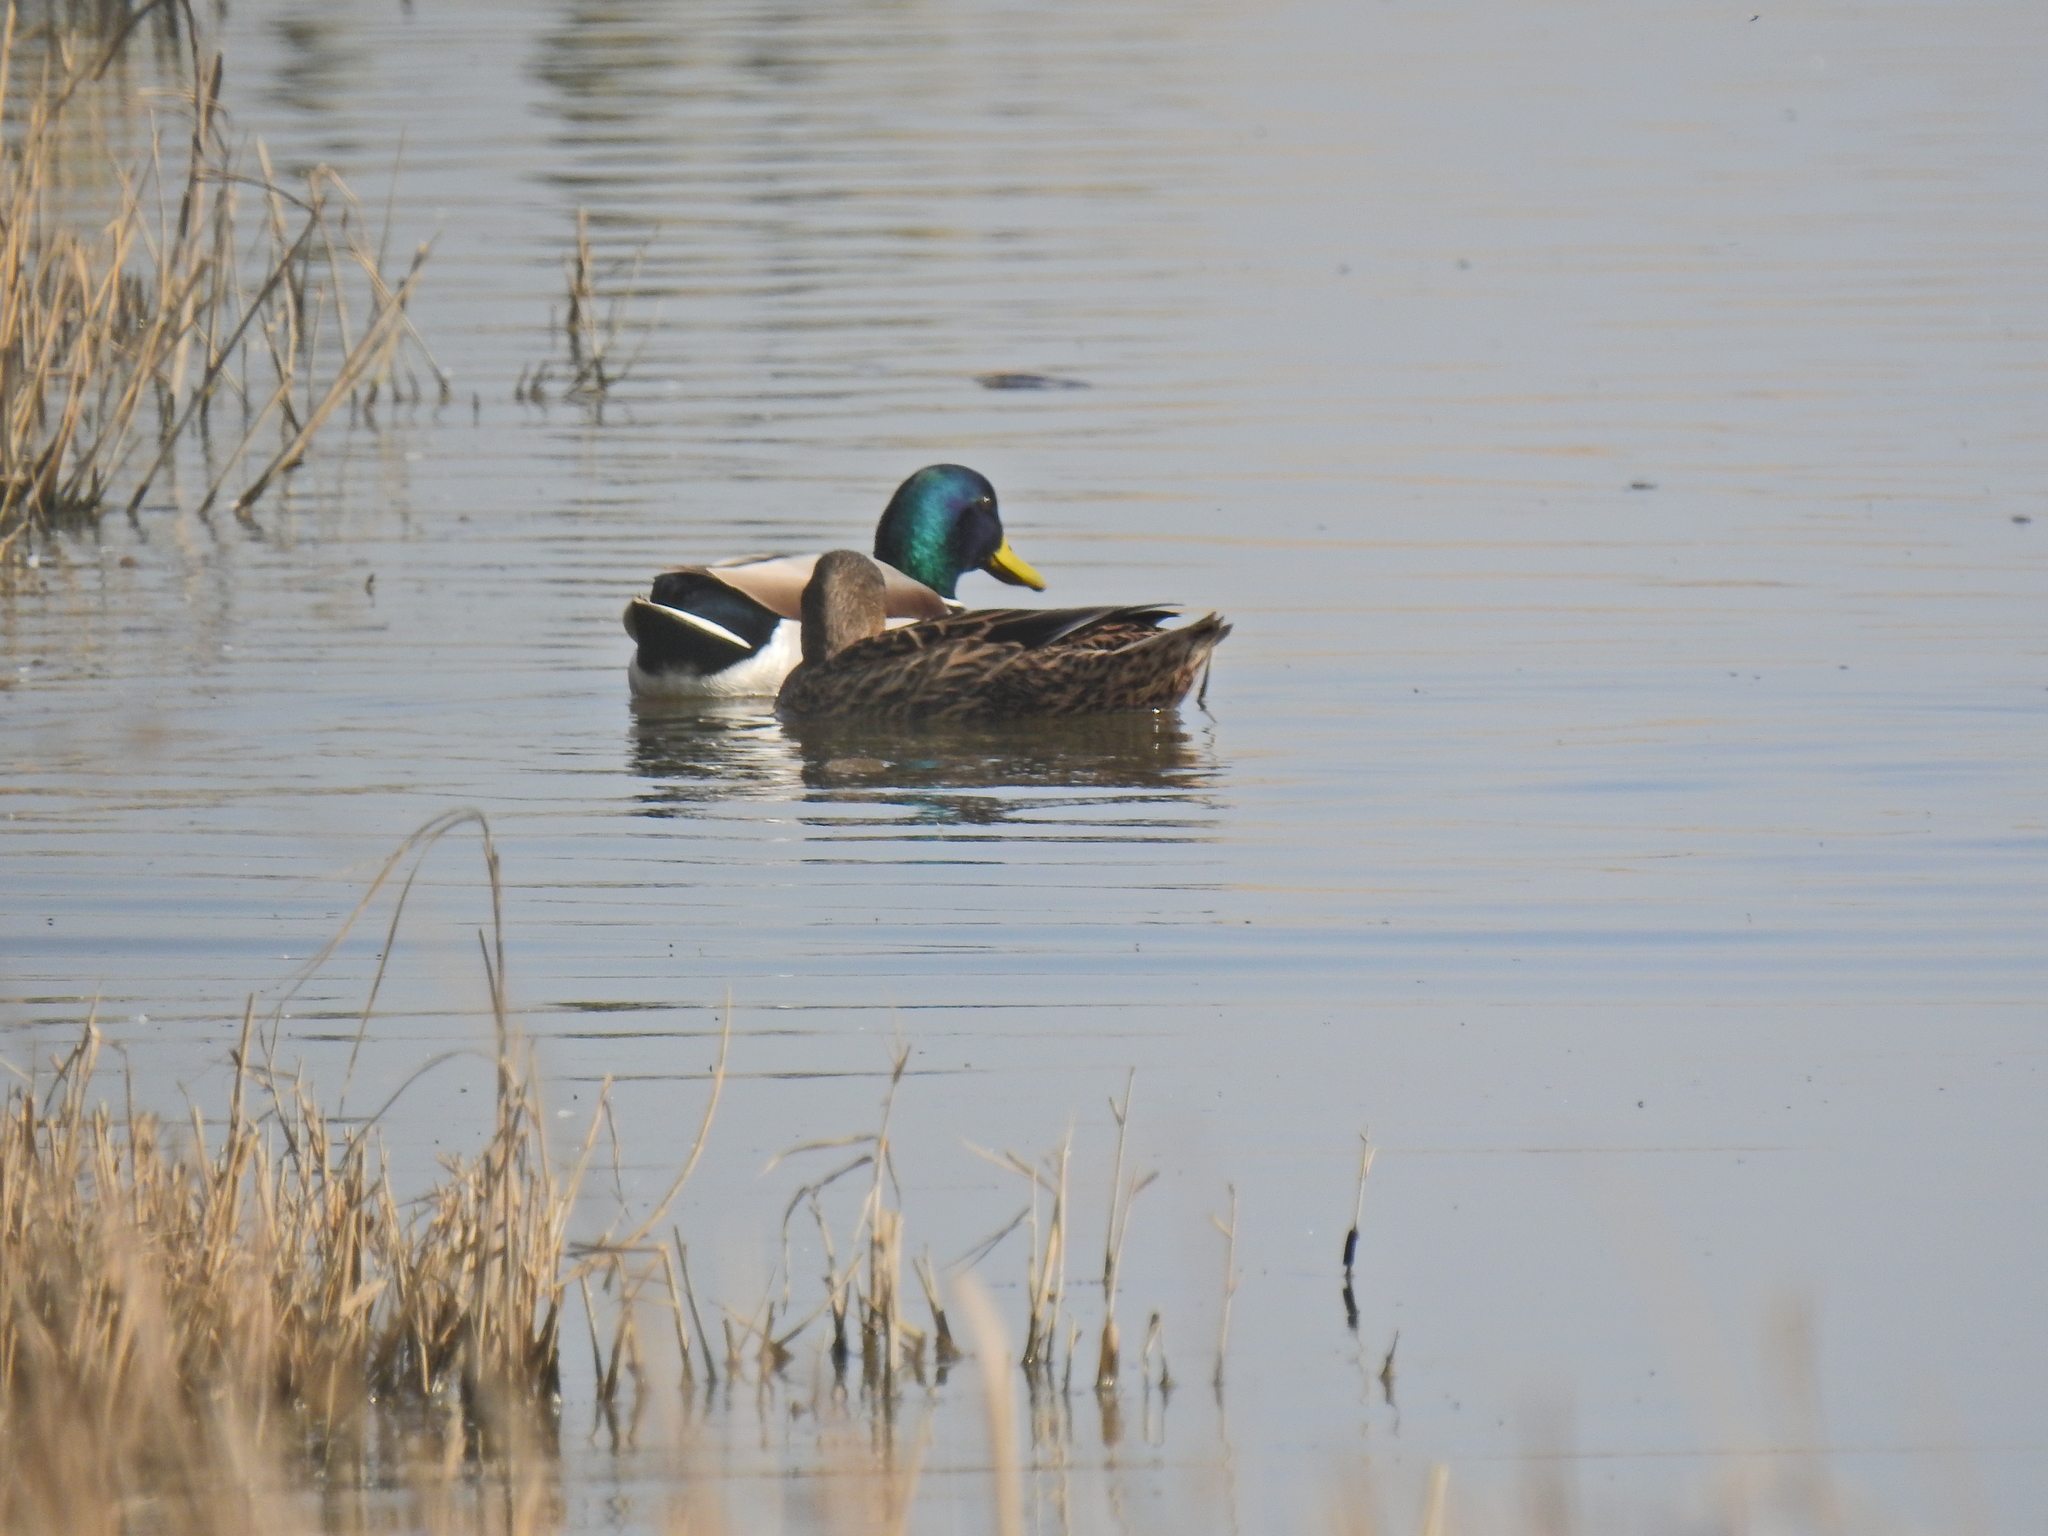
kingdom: Animalia
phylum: Chordata
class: Aves
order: Anseriformes
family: Anatidae
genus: Anas
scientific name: Anas platyrhynchos
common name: Mallard
